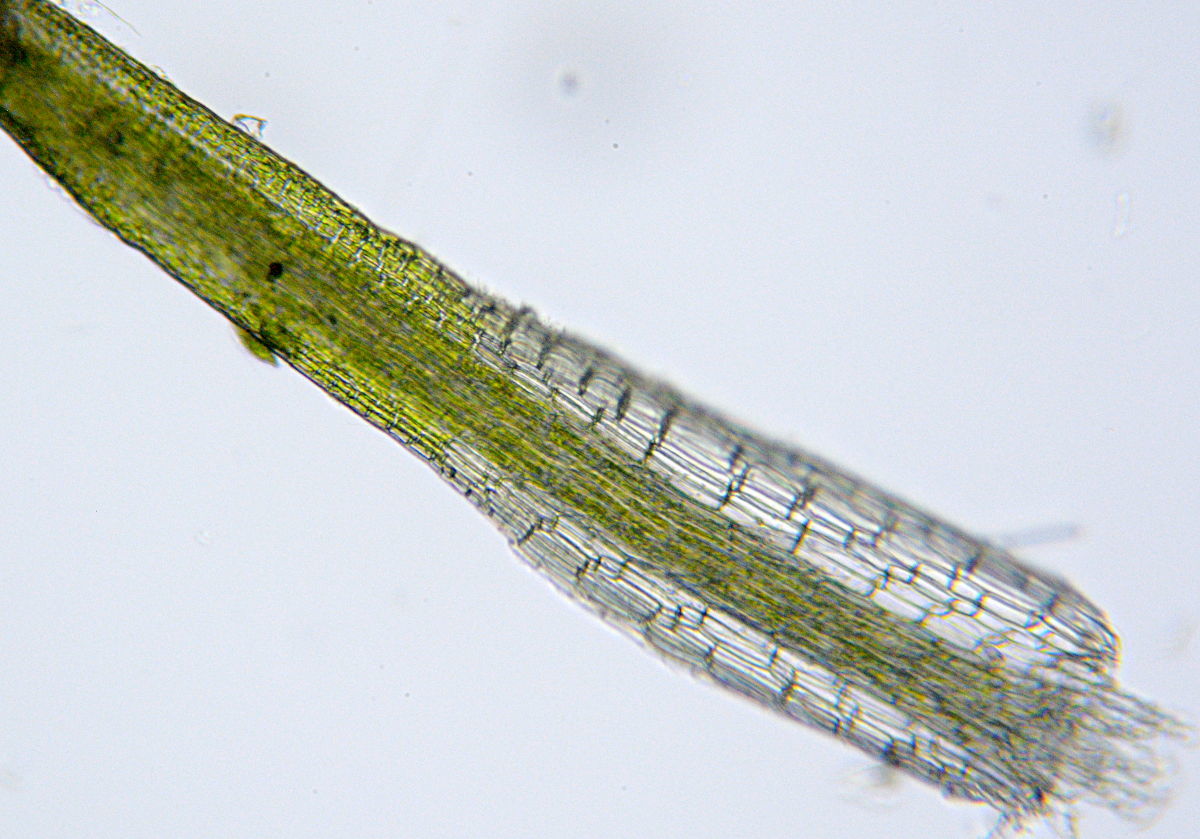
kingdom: Plantae
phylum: Bryophyta
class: Bryopsida
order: Pottiales
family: Pottiaceae
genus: Eucladium
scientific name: Eucladium verticillatum
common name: Whorled tufa-moss
